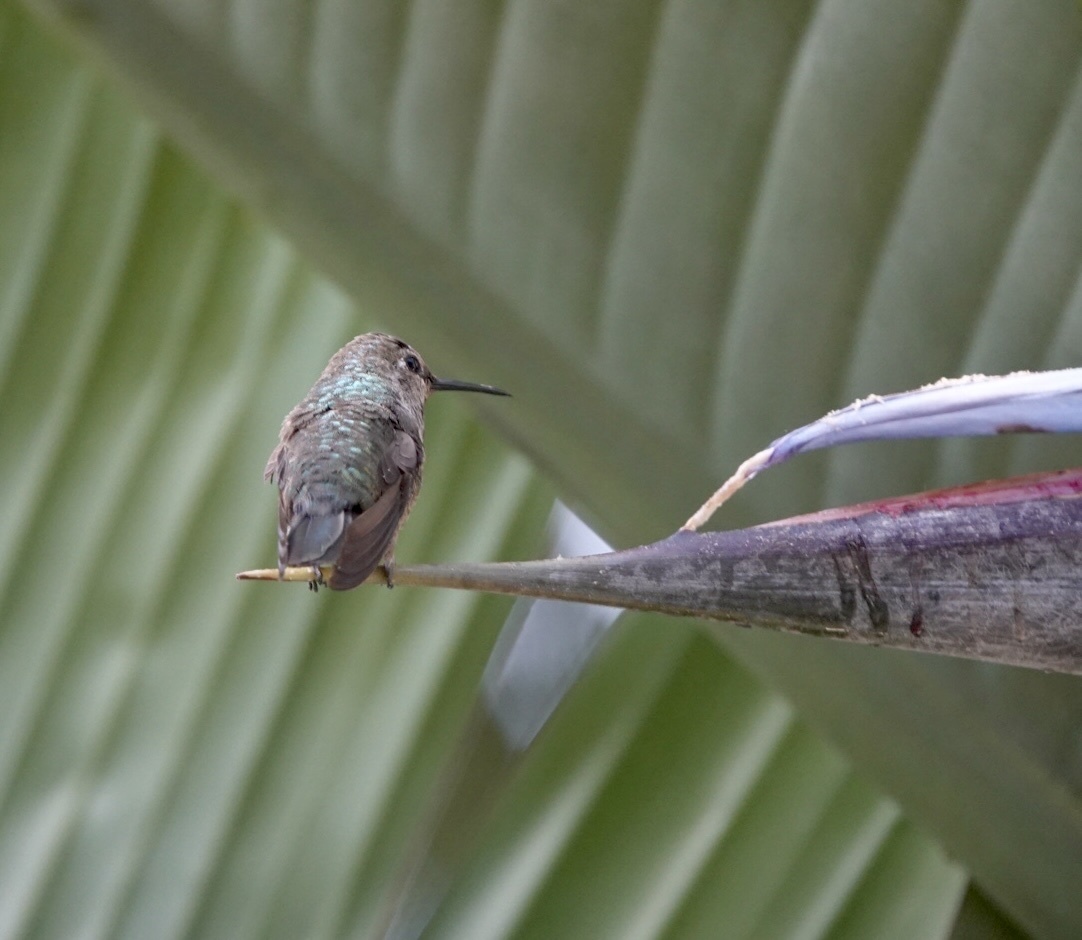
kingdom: Animalia
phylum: Chordata
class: Aves
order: Apodiformes
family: Trochilidae
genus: Calypte
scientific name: Calypte anna
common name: Anna's hummingbird
